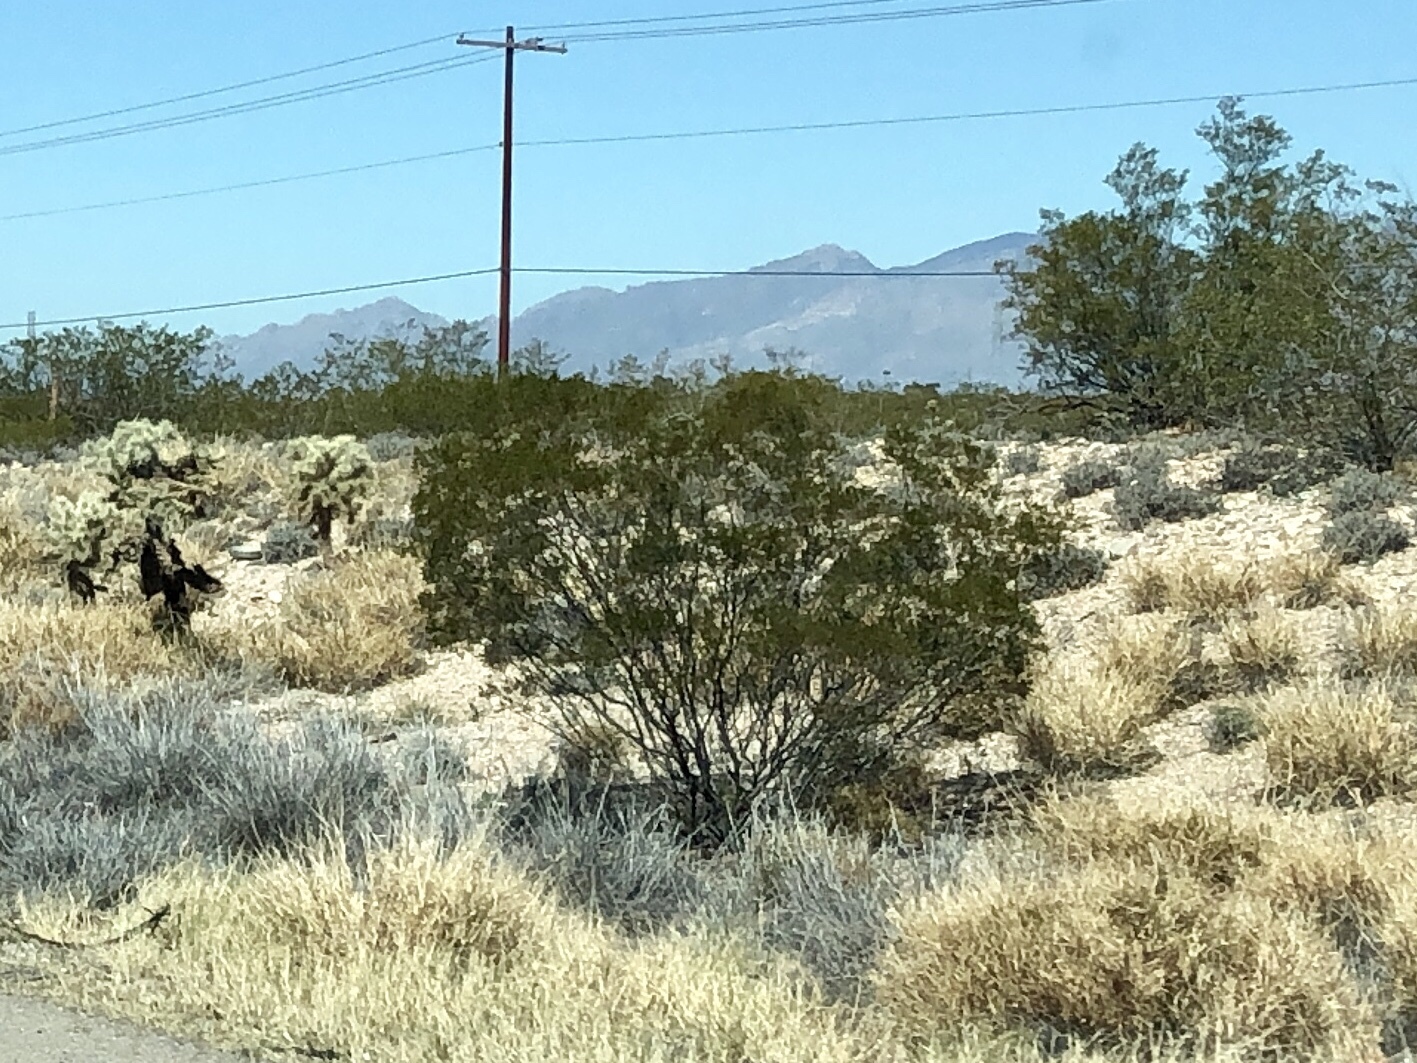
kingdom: Plantae
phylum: Tracheophyta
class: Magnoliopsida
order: Zygophyllales
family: Zygophyllaceae
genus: Larrea
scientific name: Larrea tridentata
